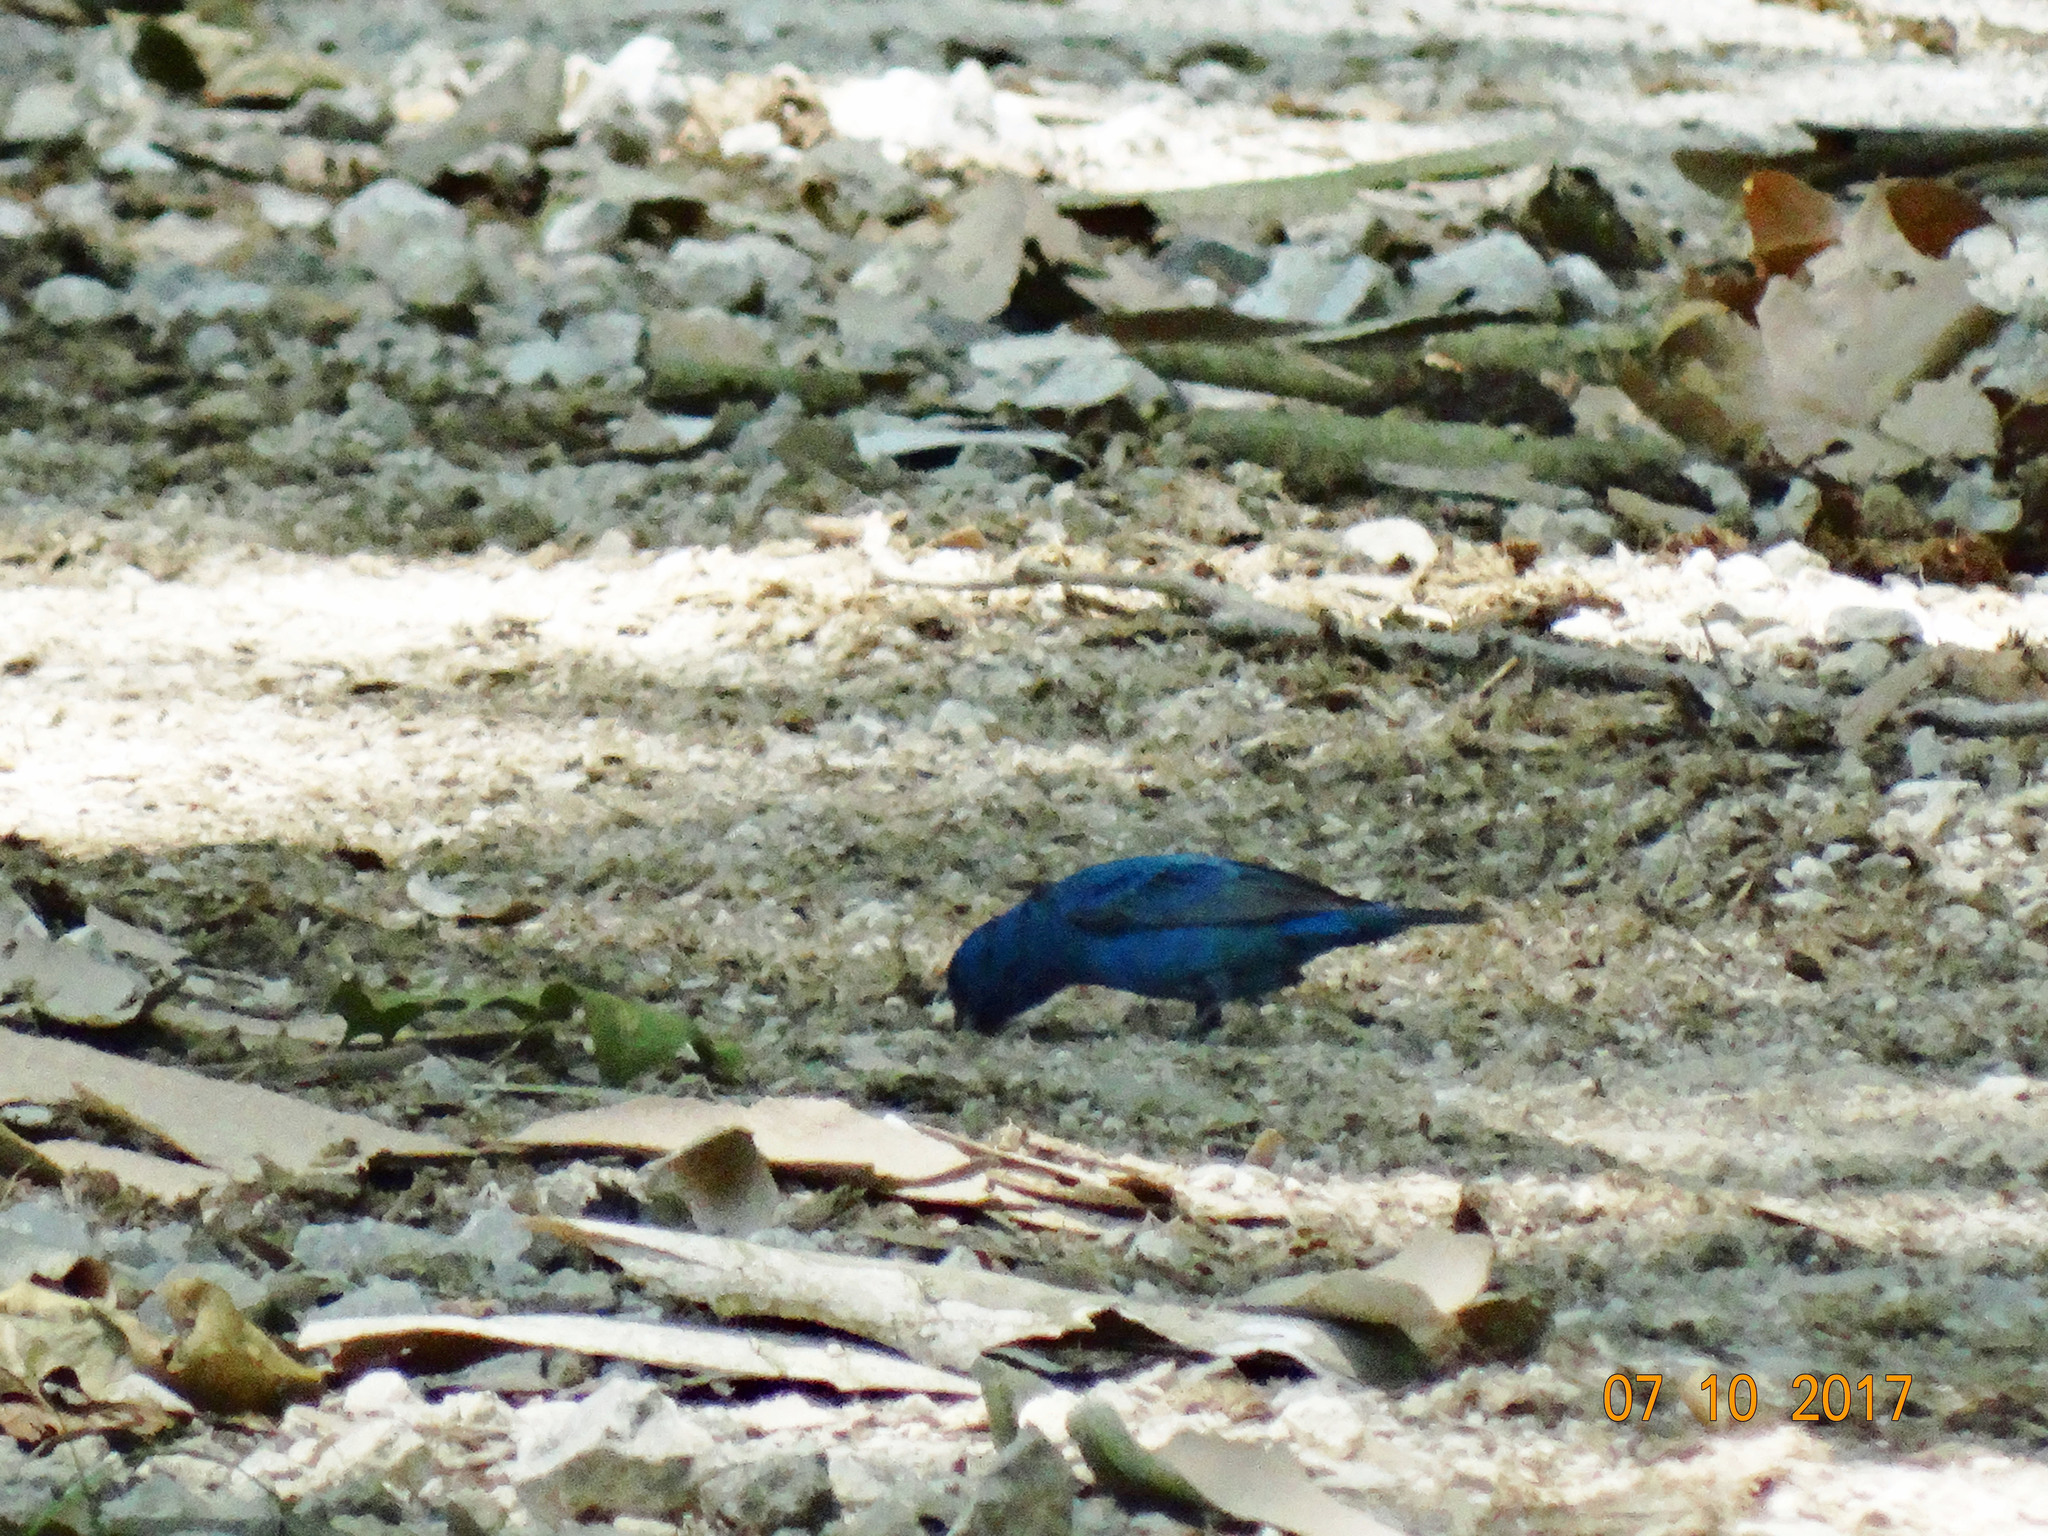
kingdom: Animalia
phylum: Chordata
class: Aves
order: Passeriformes
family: Cardinalidae
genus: Passerina
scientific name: Passerina cyanea
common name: Indigo bunting
